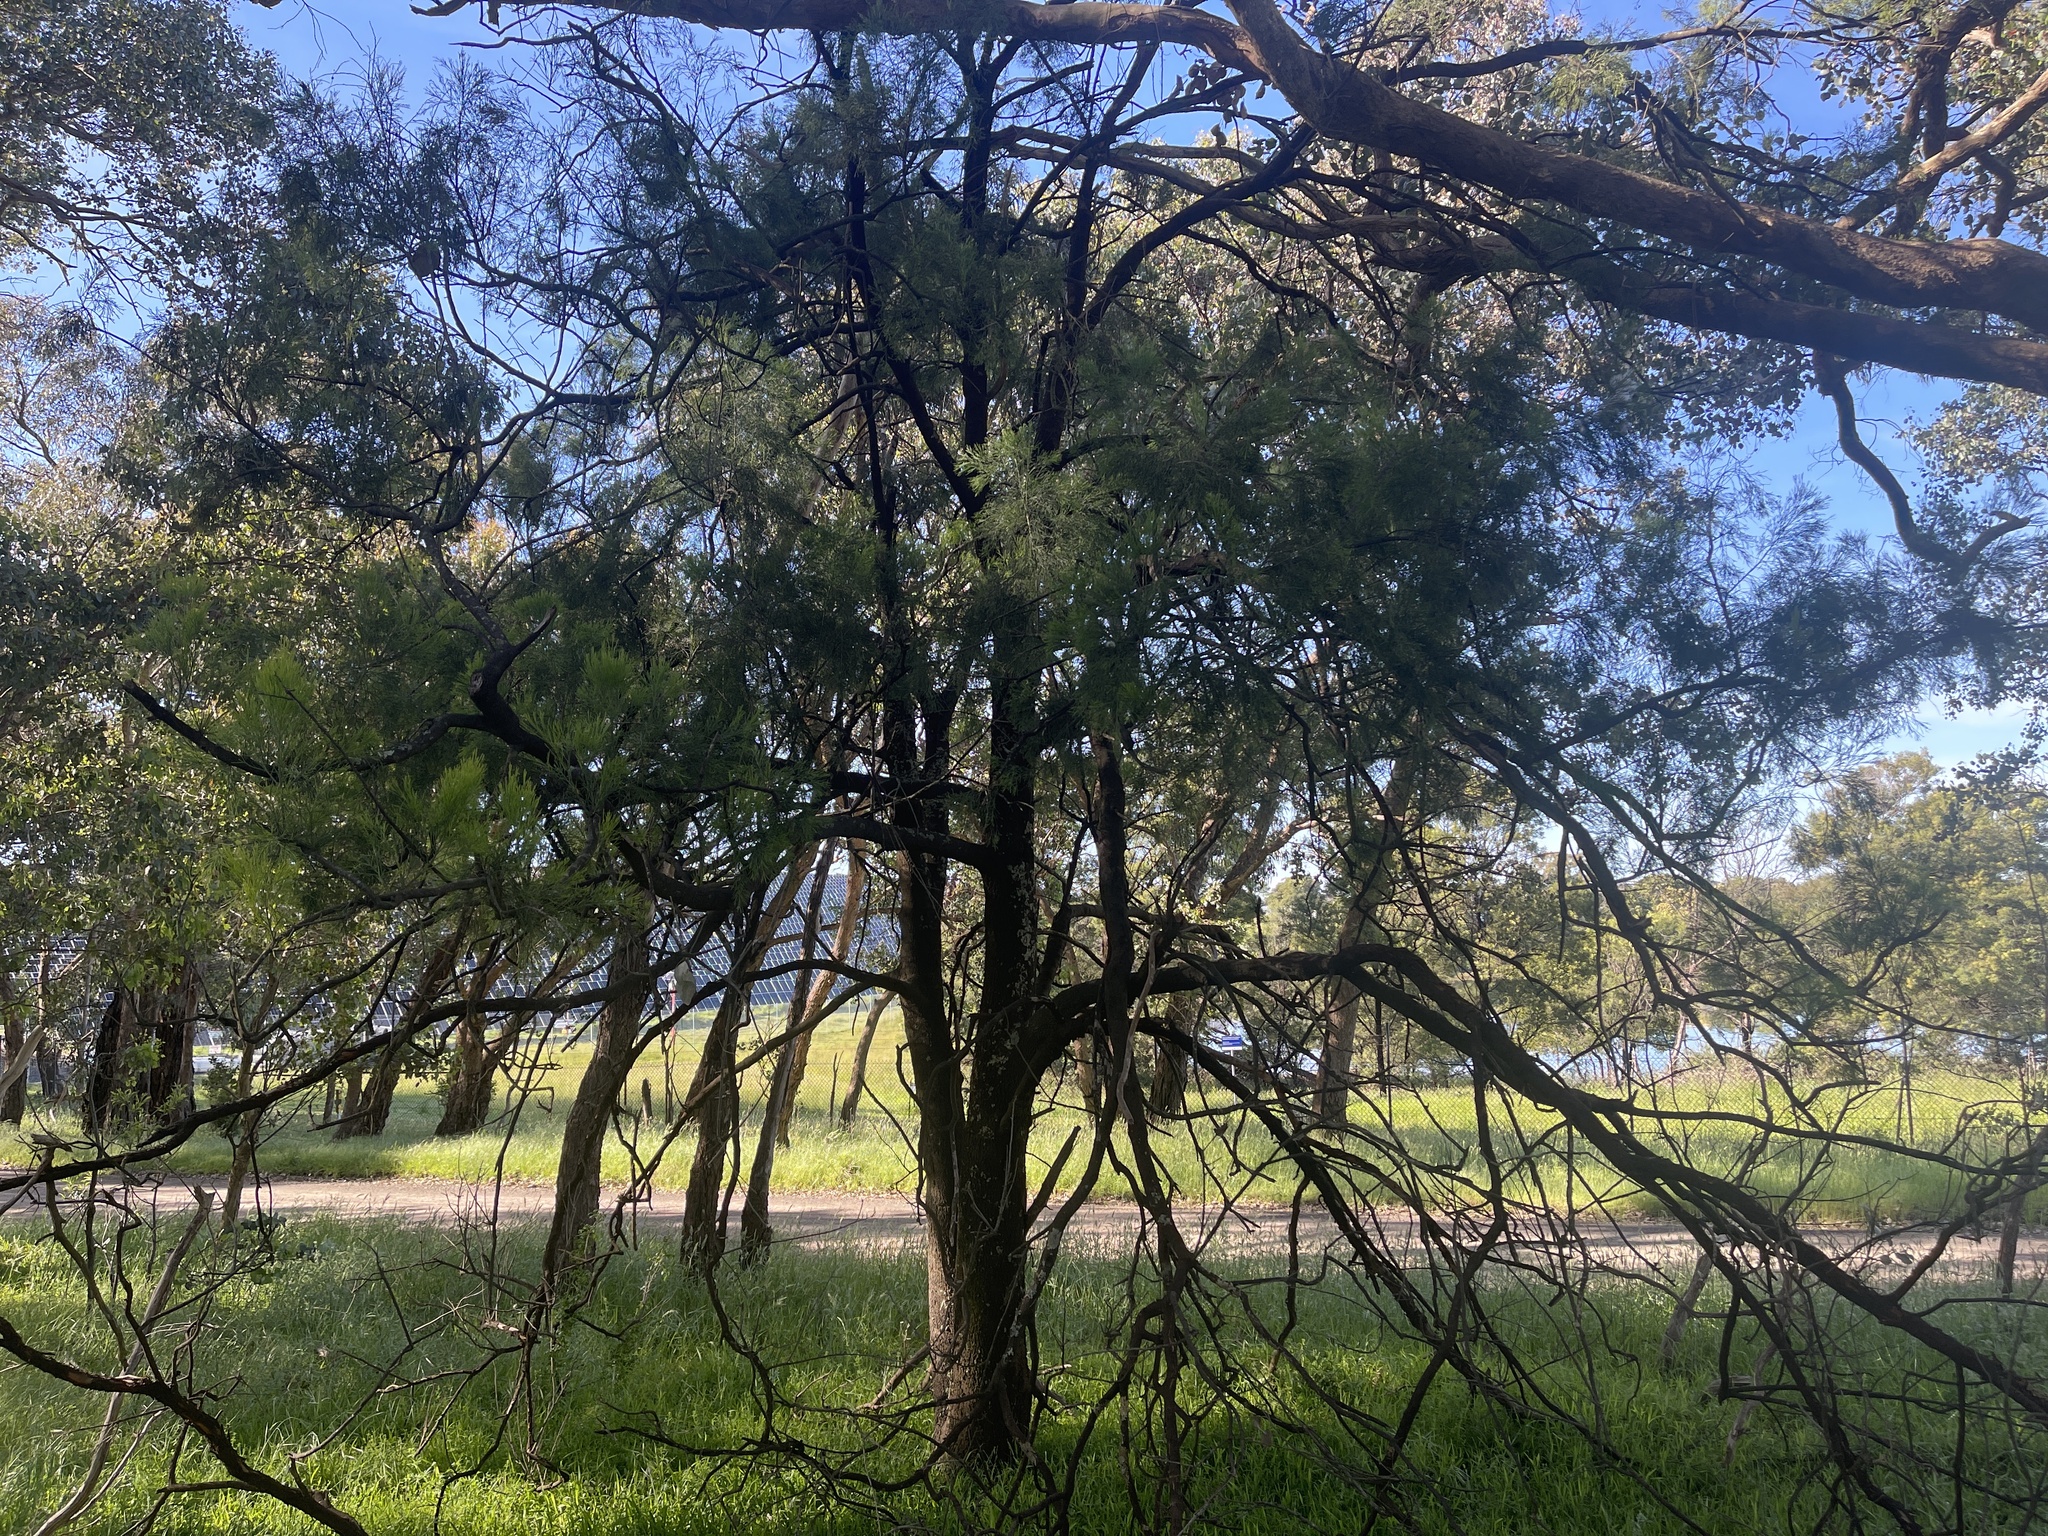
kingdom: Plantae
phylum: Tracheophyta
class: Magnoliopsida
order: Santalales
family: Santalaceae
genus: Exocarpos
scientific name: Exocarpos cupressiformis
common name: Cherry ballart
